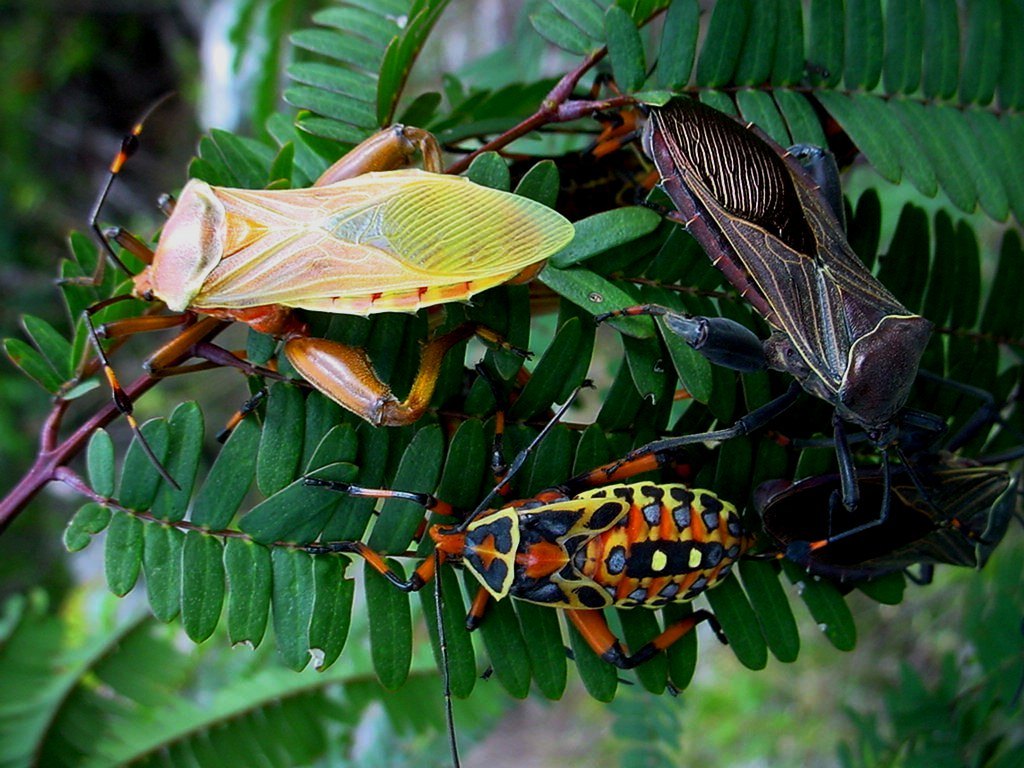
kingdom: Animalia
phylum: Arthropoda
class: Insecta
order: Hemiptera
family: Coreidae
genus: Pachylis
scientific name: Pachylis nervosus
